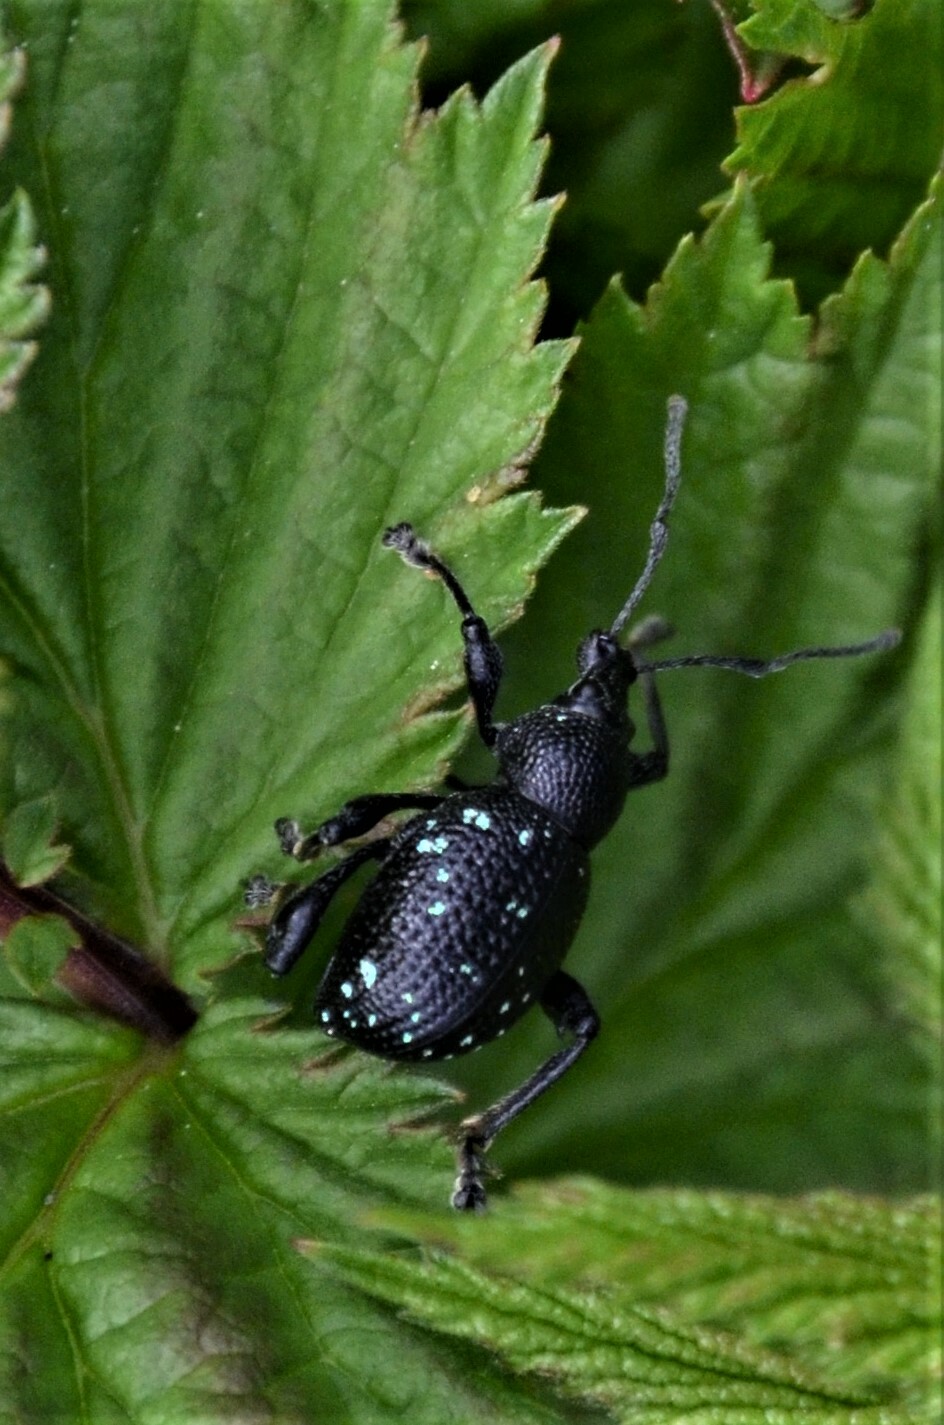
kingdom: Animalia
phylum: Arthropoda
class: Insecta
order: Coleoptera
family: Curculionidae
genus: Otiorhynchus
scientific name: Otiorhynchus gemmatus
